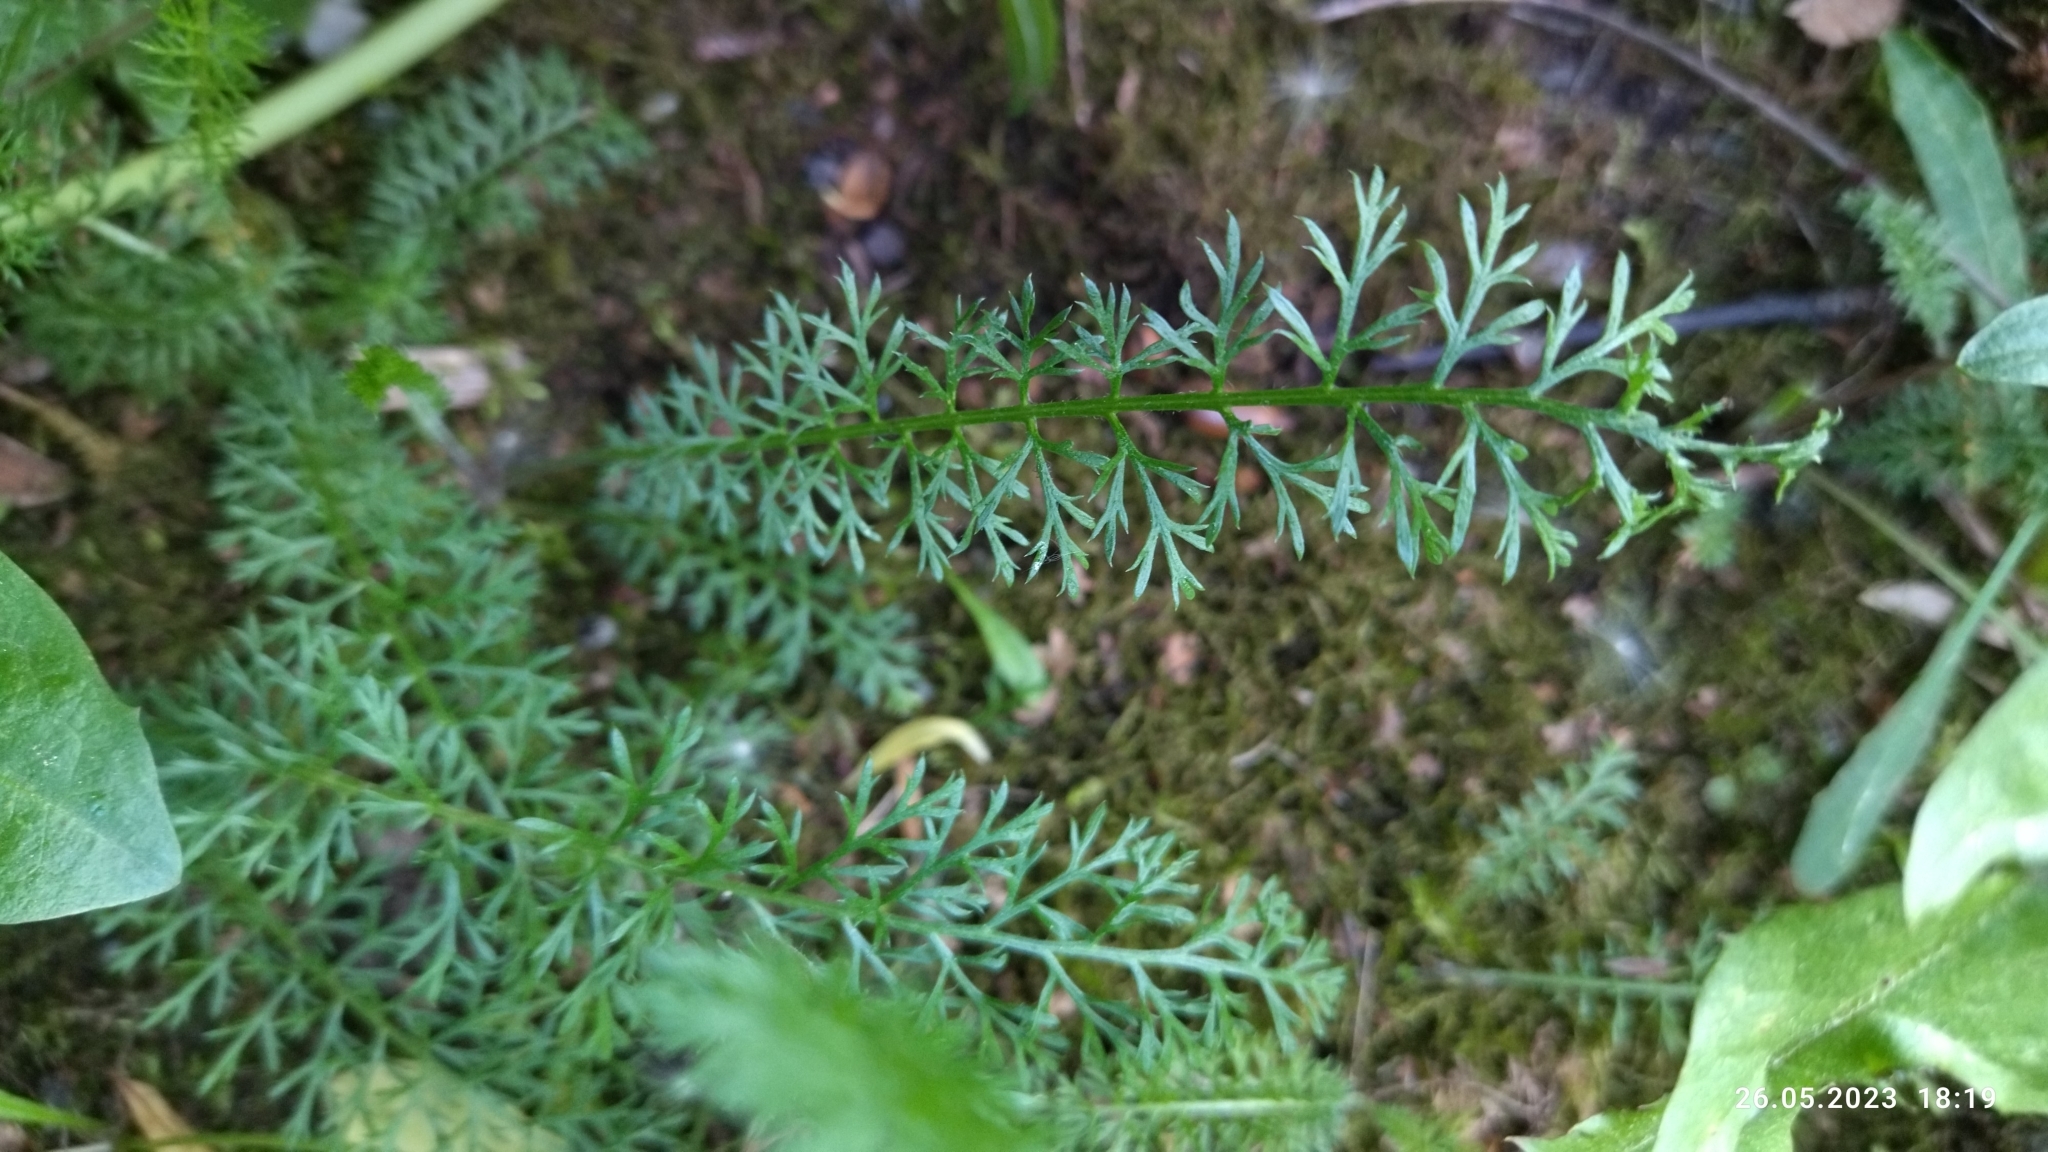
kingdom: Plantae
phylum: Tracheophyta
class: Magnoliopsida
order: Asterales
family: Asteraceae
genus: Achillea
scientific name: Achillea millefolium
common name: Yarrow
